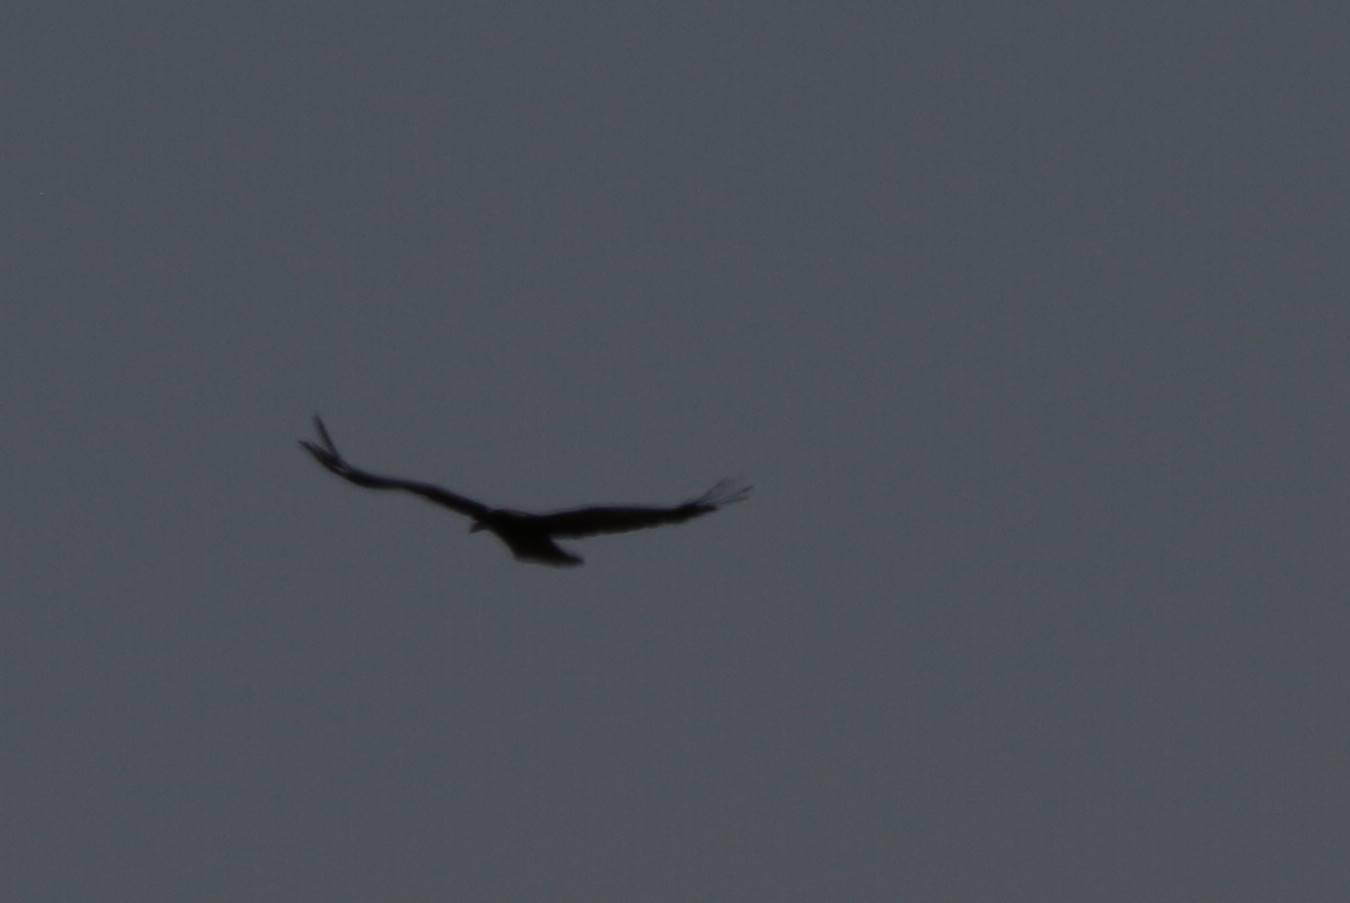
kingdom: Animalia
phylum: Chordata
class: Aves
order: Passeriformes
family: Corvidae
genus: Corvus
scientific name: Corvus ruficollis
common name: Brown-necked raven
